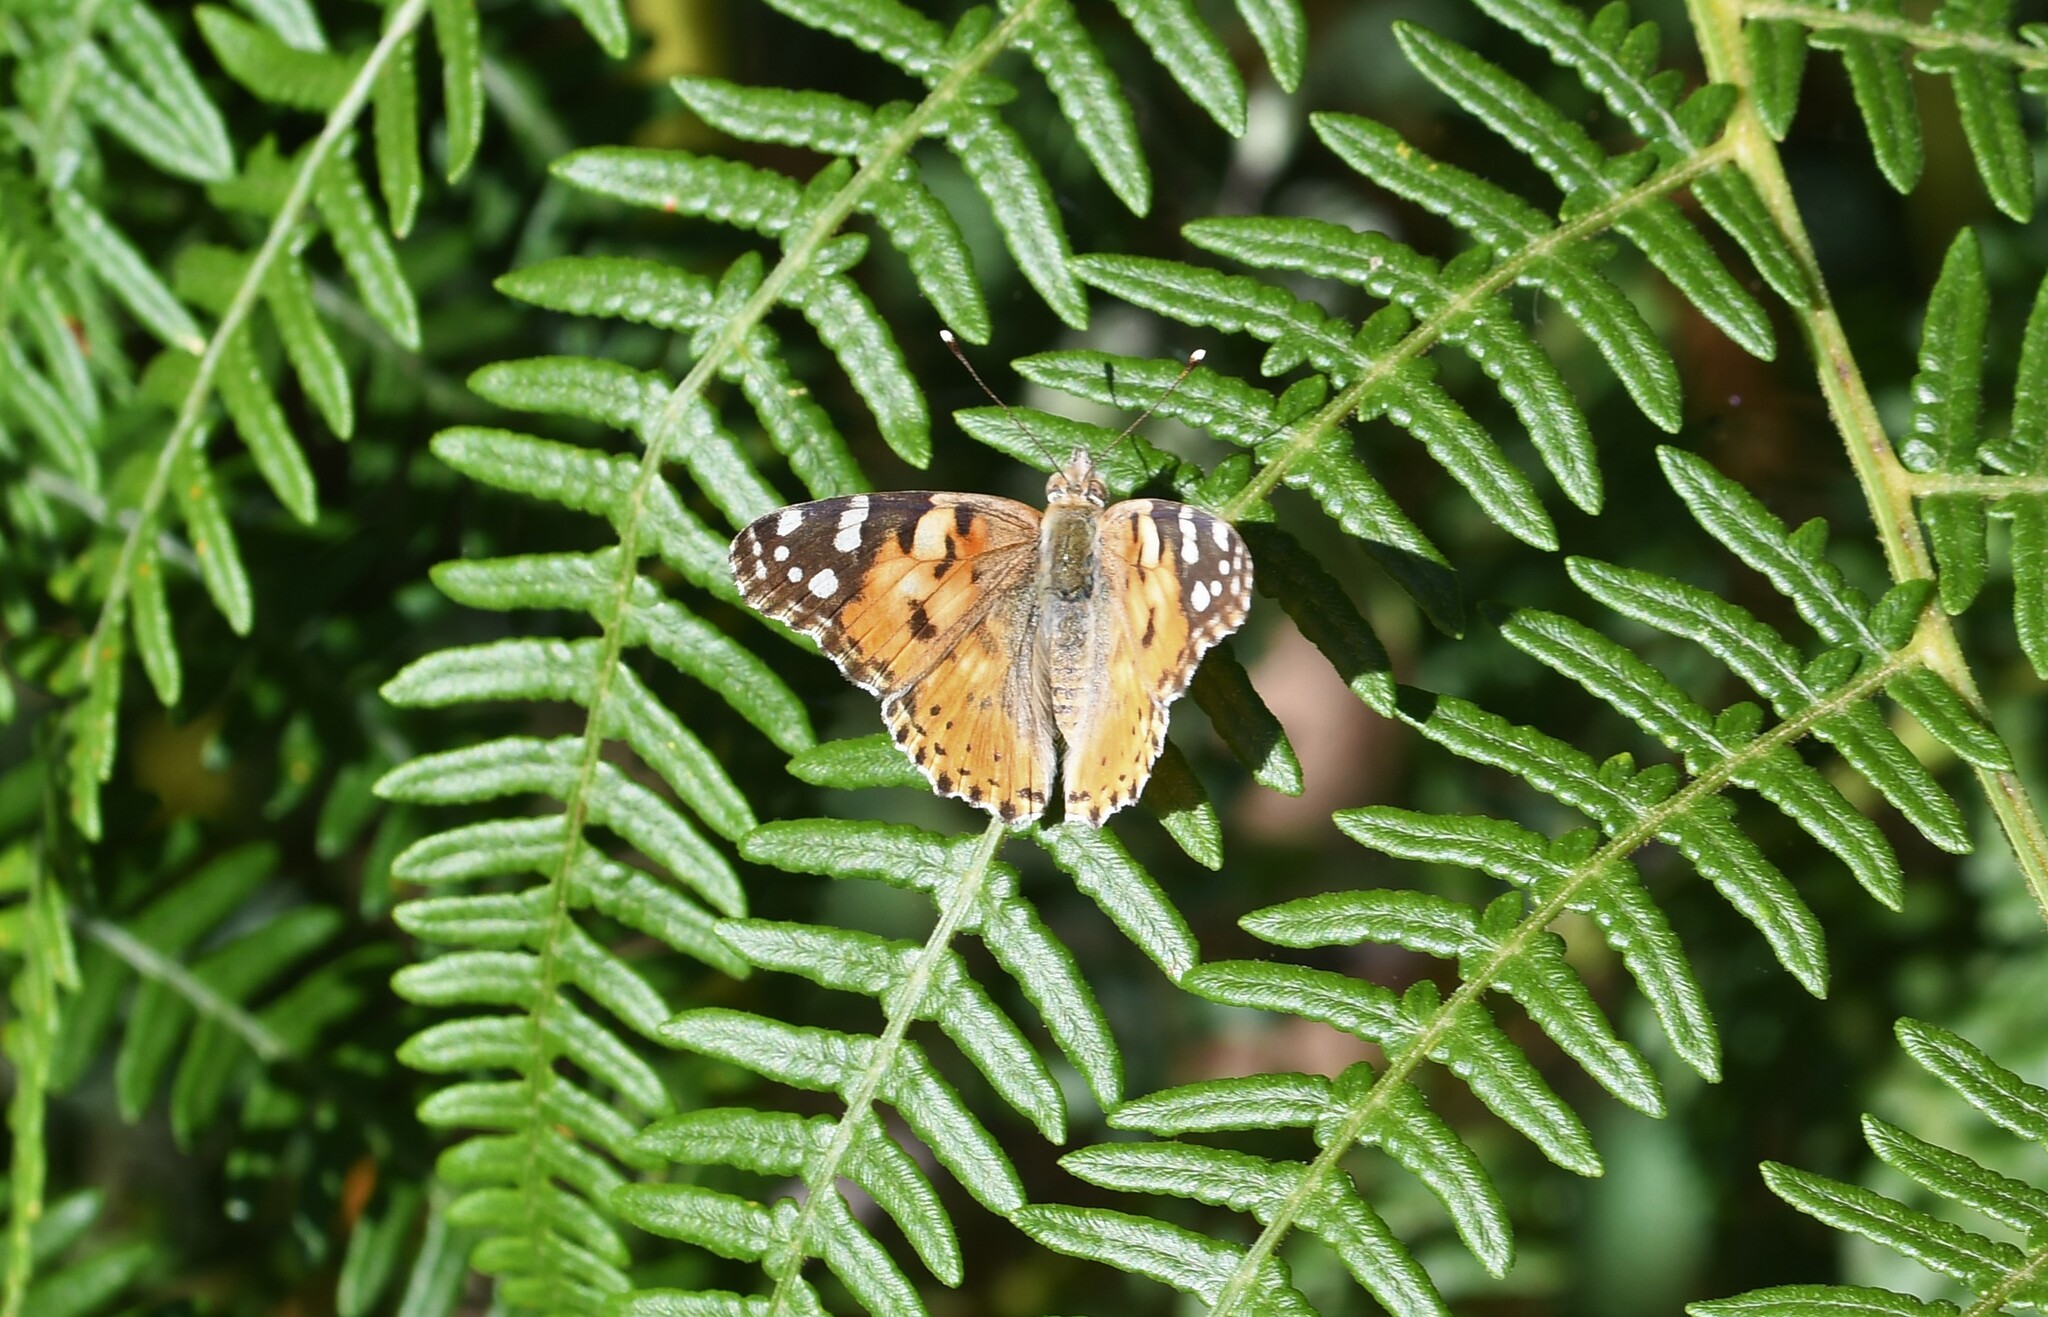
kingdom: Animalia
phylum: Arthropoda
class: Insecta
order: Lepidoptera
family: Nymphalidae
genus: Vanessa
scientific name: Vanessa cardui
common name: Painted lady
